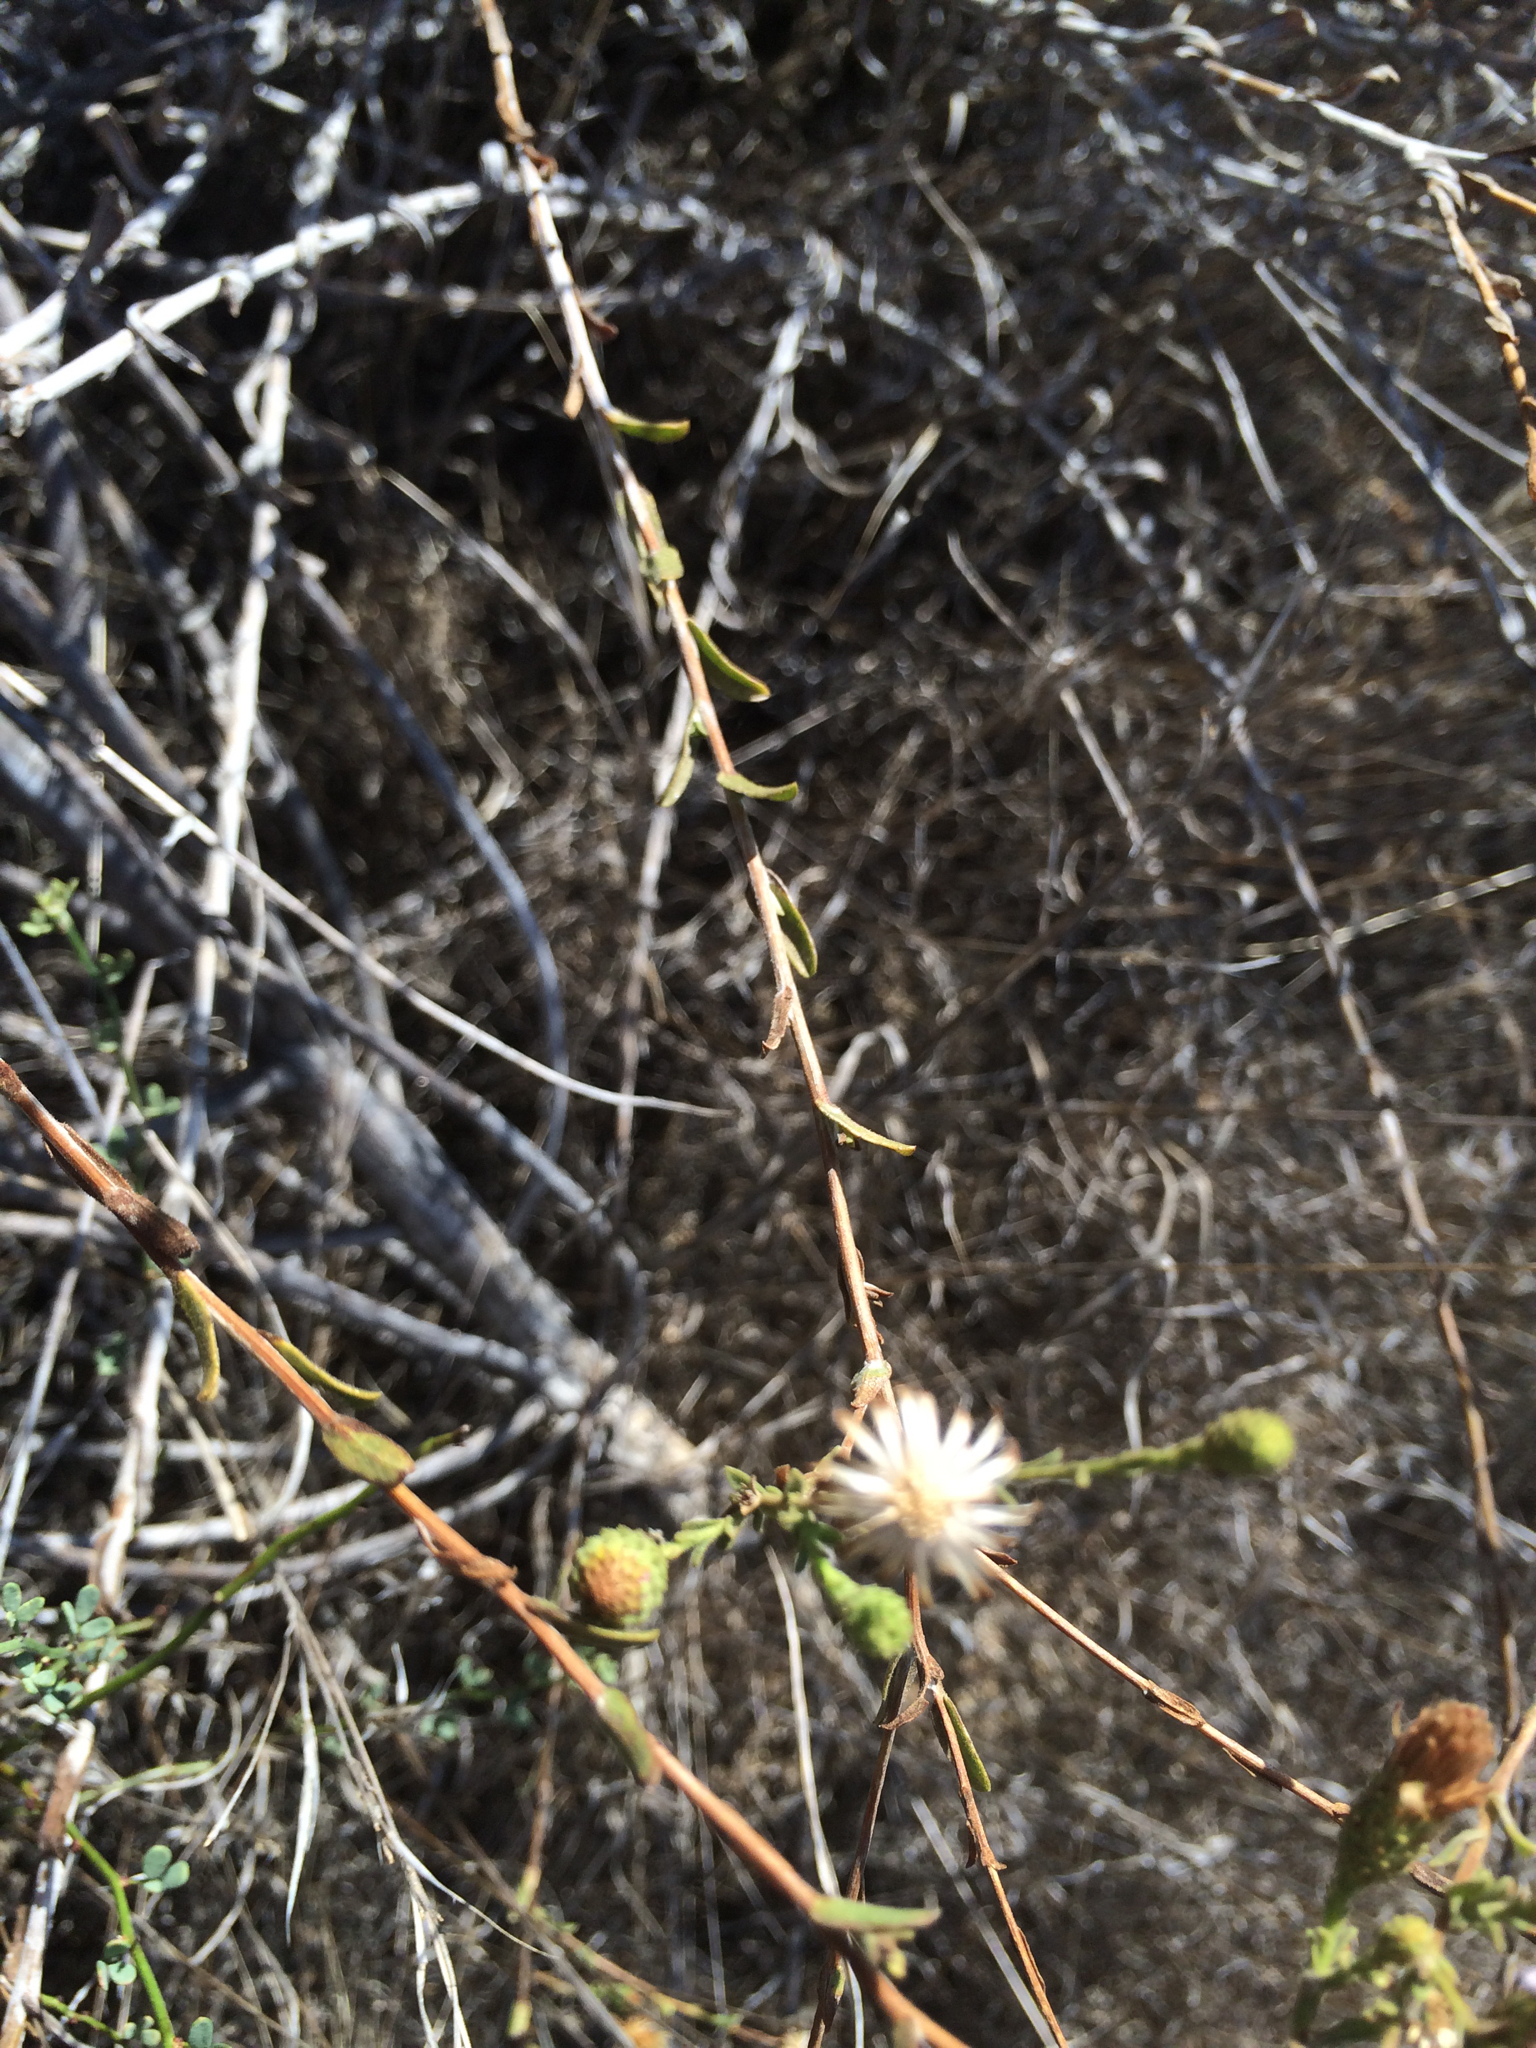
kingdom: Plantae
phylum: Tracheophyta
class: Magnoliopsida
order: Asterales
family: Asteraceae
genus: Corethrogyne
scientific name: Corethrogyne filaginifolia
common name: Sand-aster
